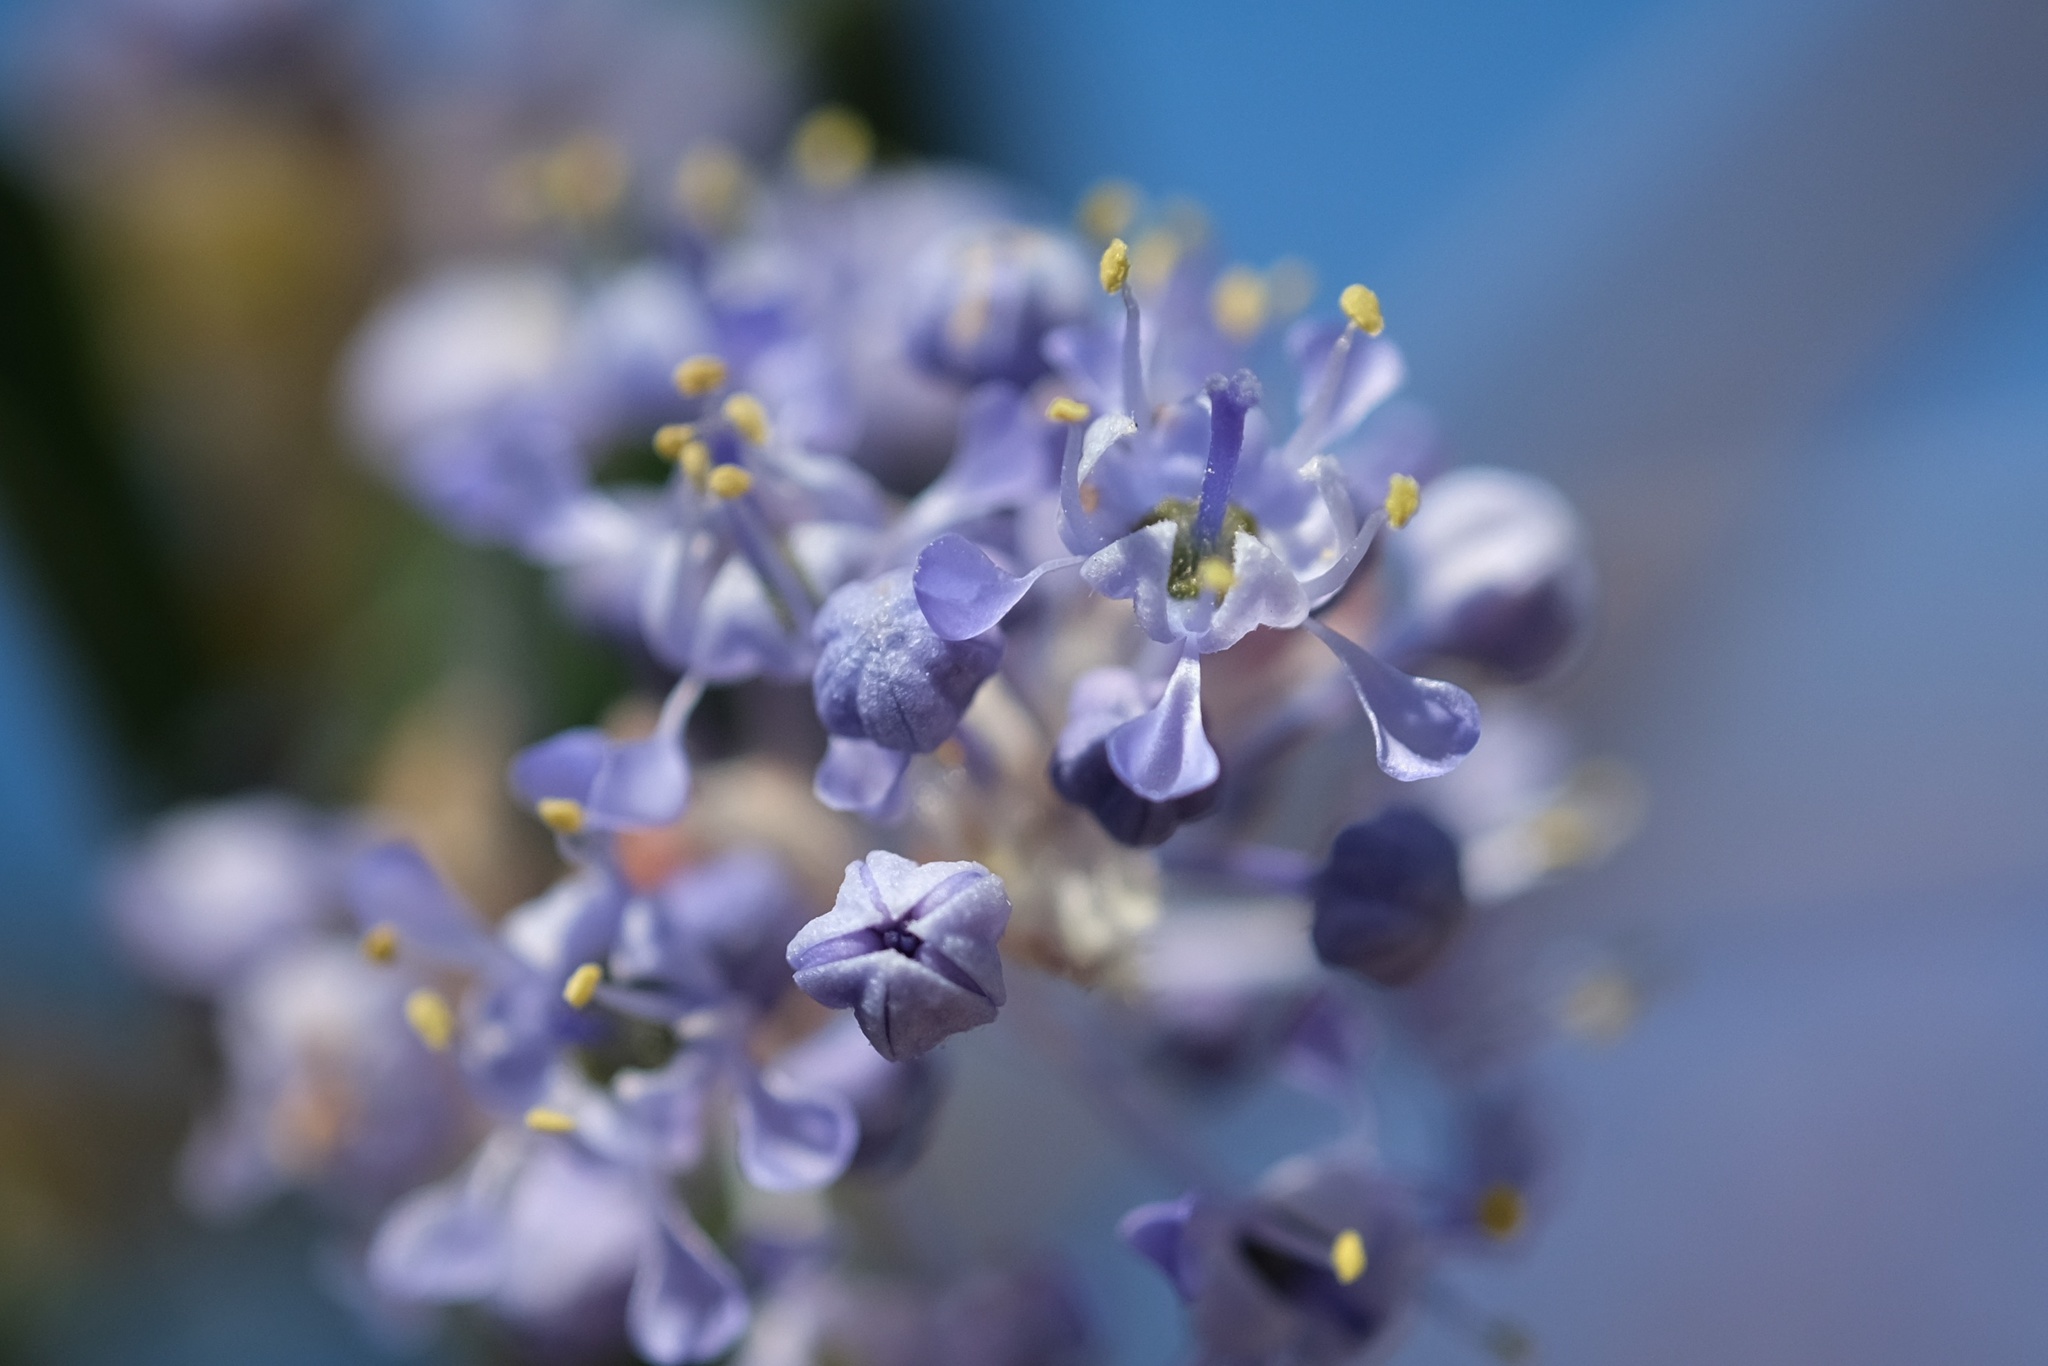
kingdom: Plantae
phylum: Tracheophyta
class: Magnoliopsida
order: Rosales
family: Rhamnaceae
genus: Ceanothus
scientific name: Ceanothus oliganthus
